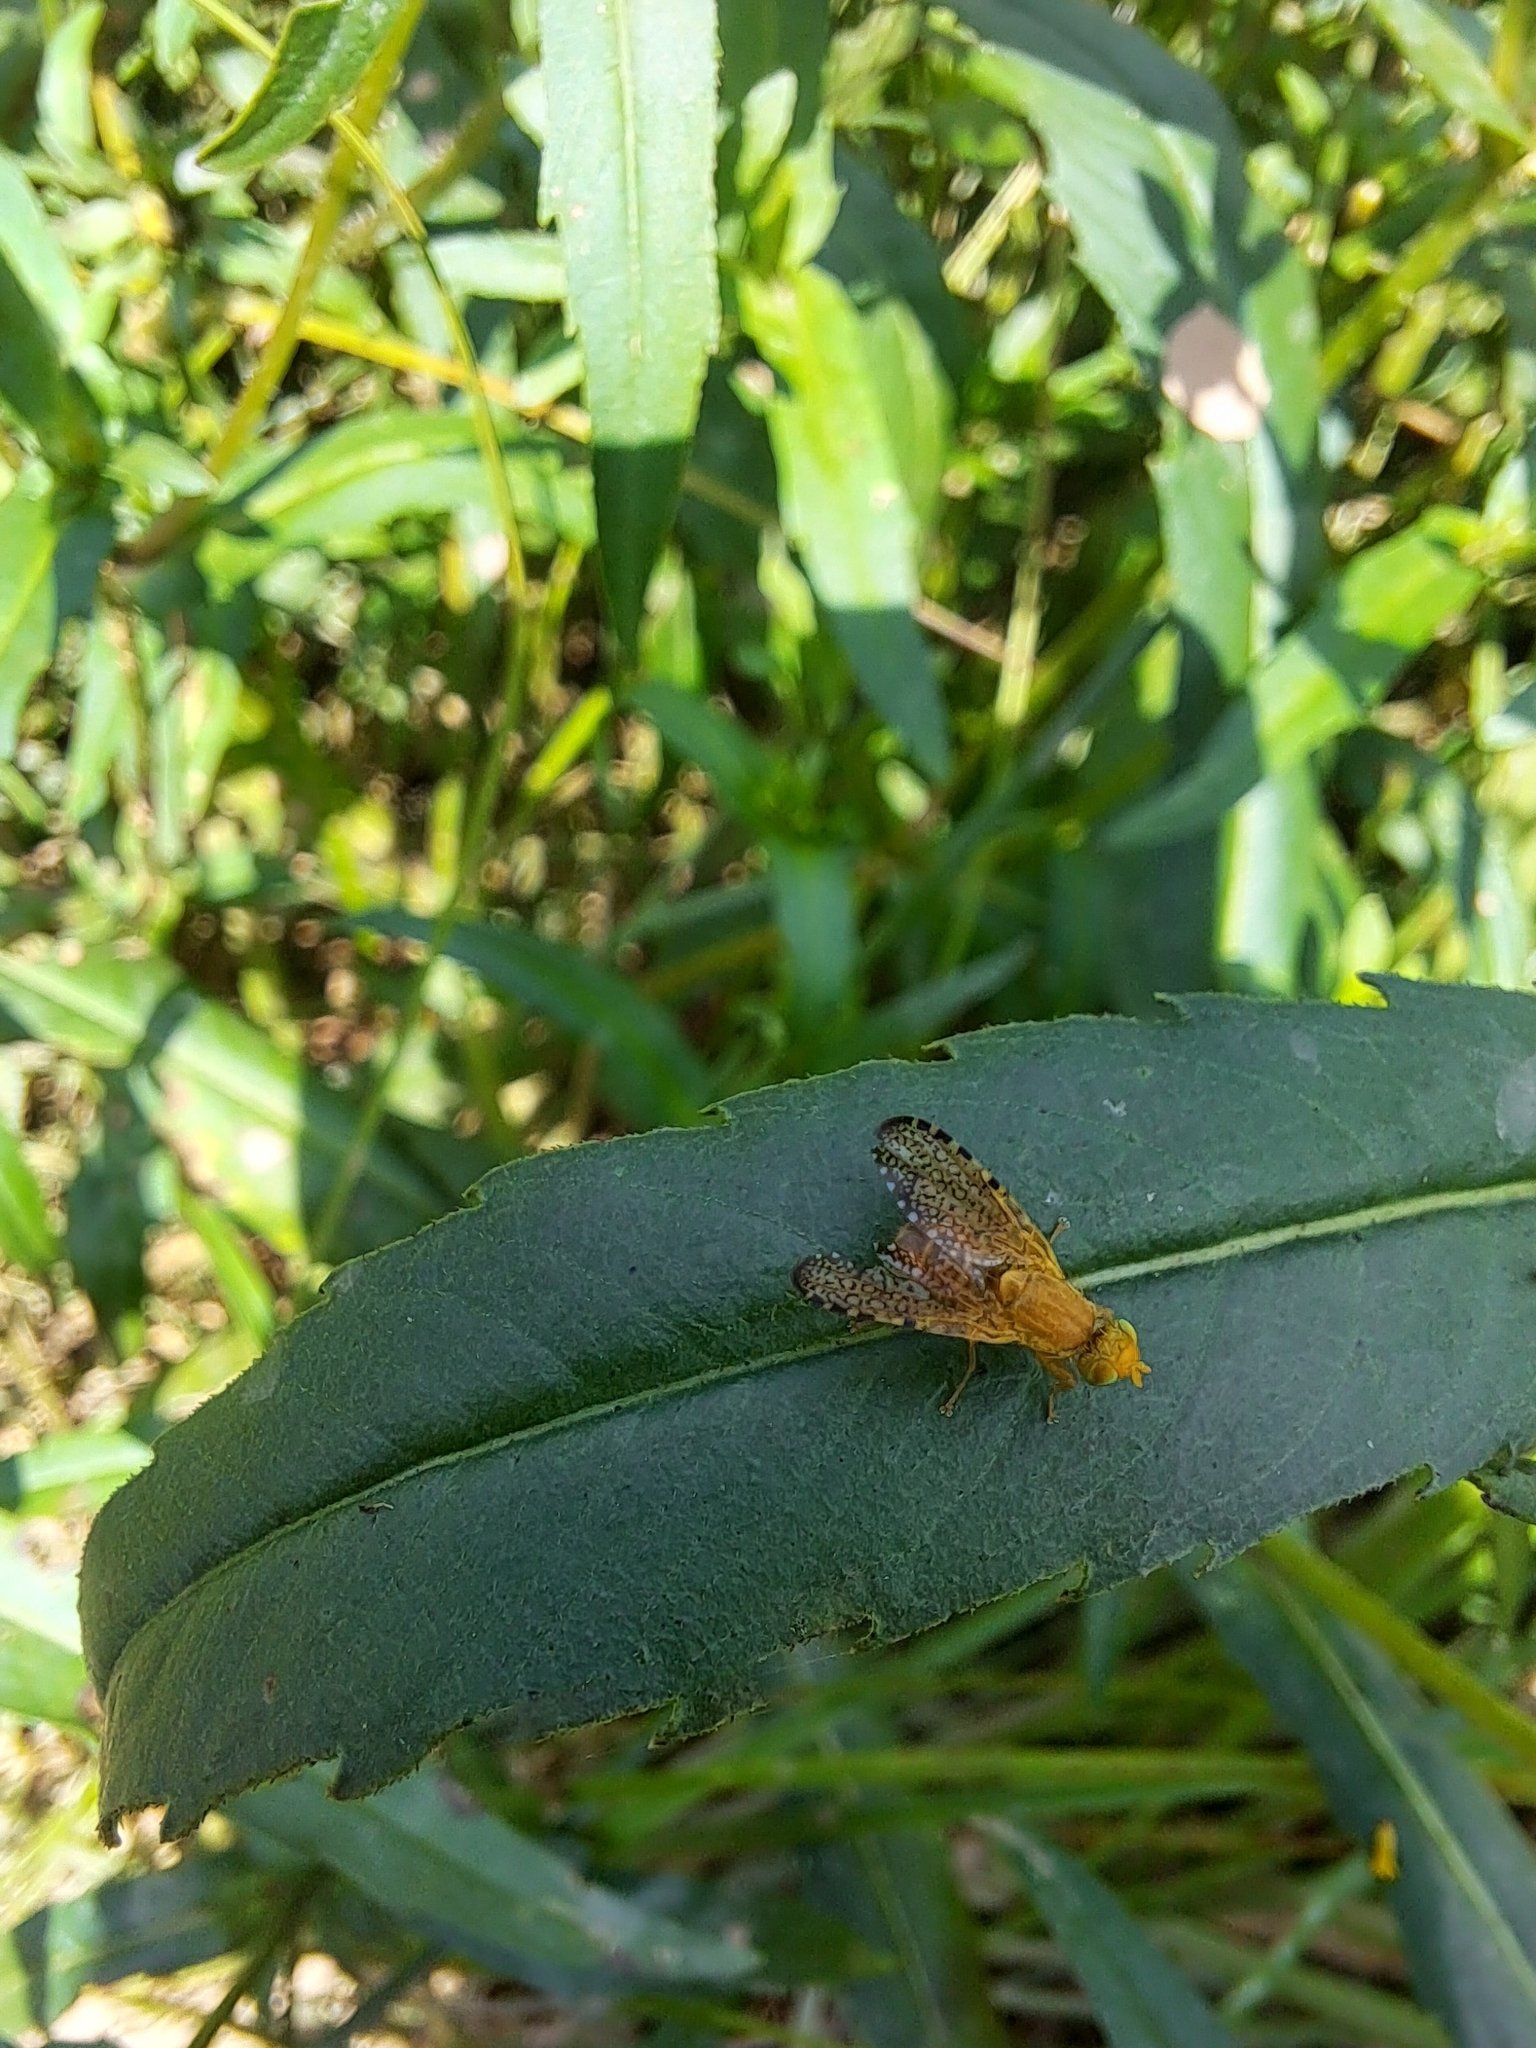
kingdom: Animalia
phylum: Arthropoda
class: Insecta
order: Diptera
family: Tephritidae
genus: Icterica
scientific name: Icterica circinata
